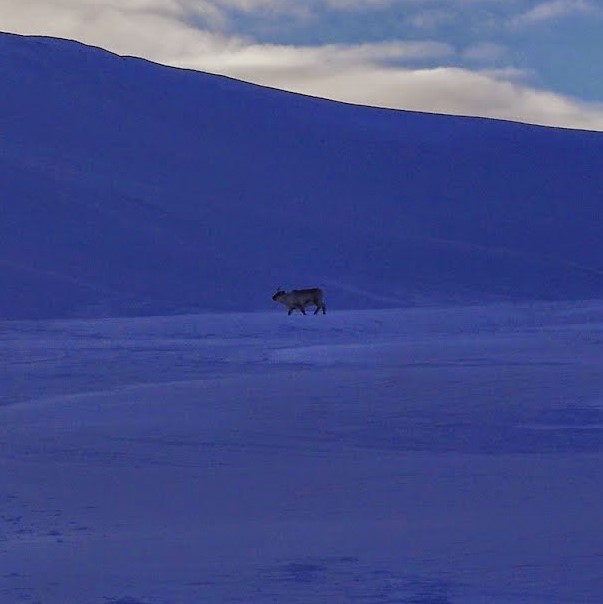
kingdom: Animalia
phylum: Chordata
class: Mammalia
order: Artiodactyla
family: Cervidae
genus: Rangifer
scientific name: Rangifer tarandus
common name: Reindeer
